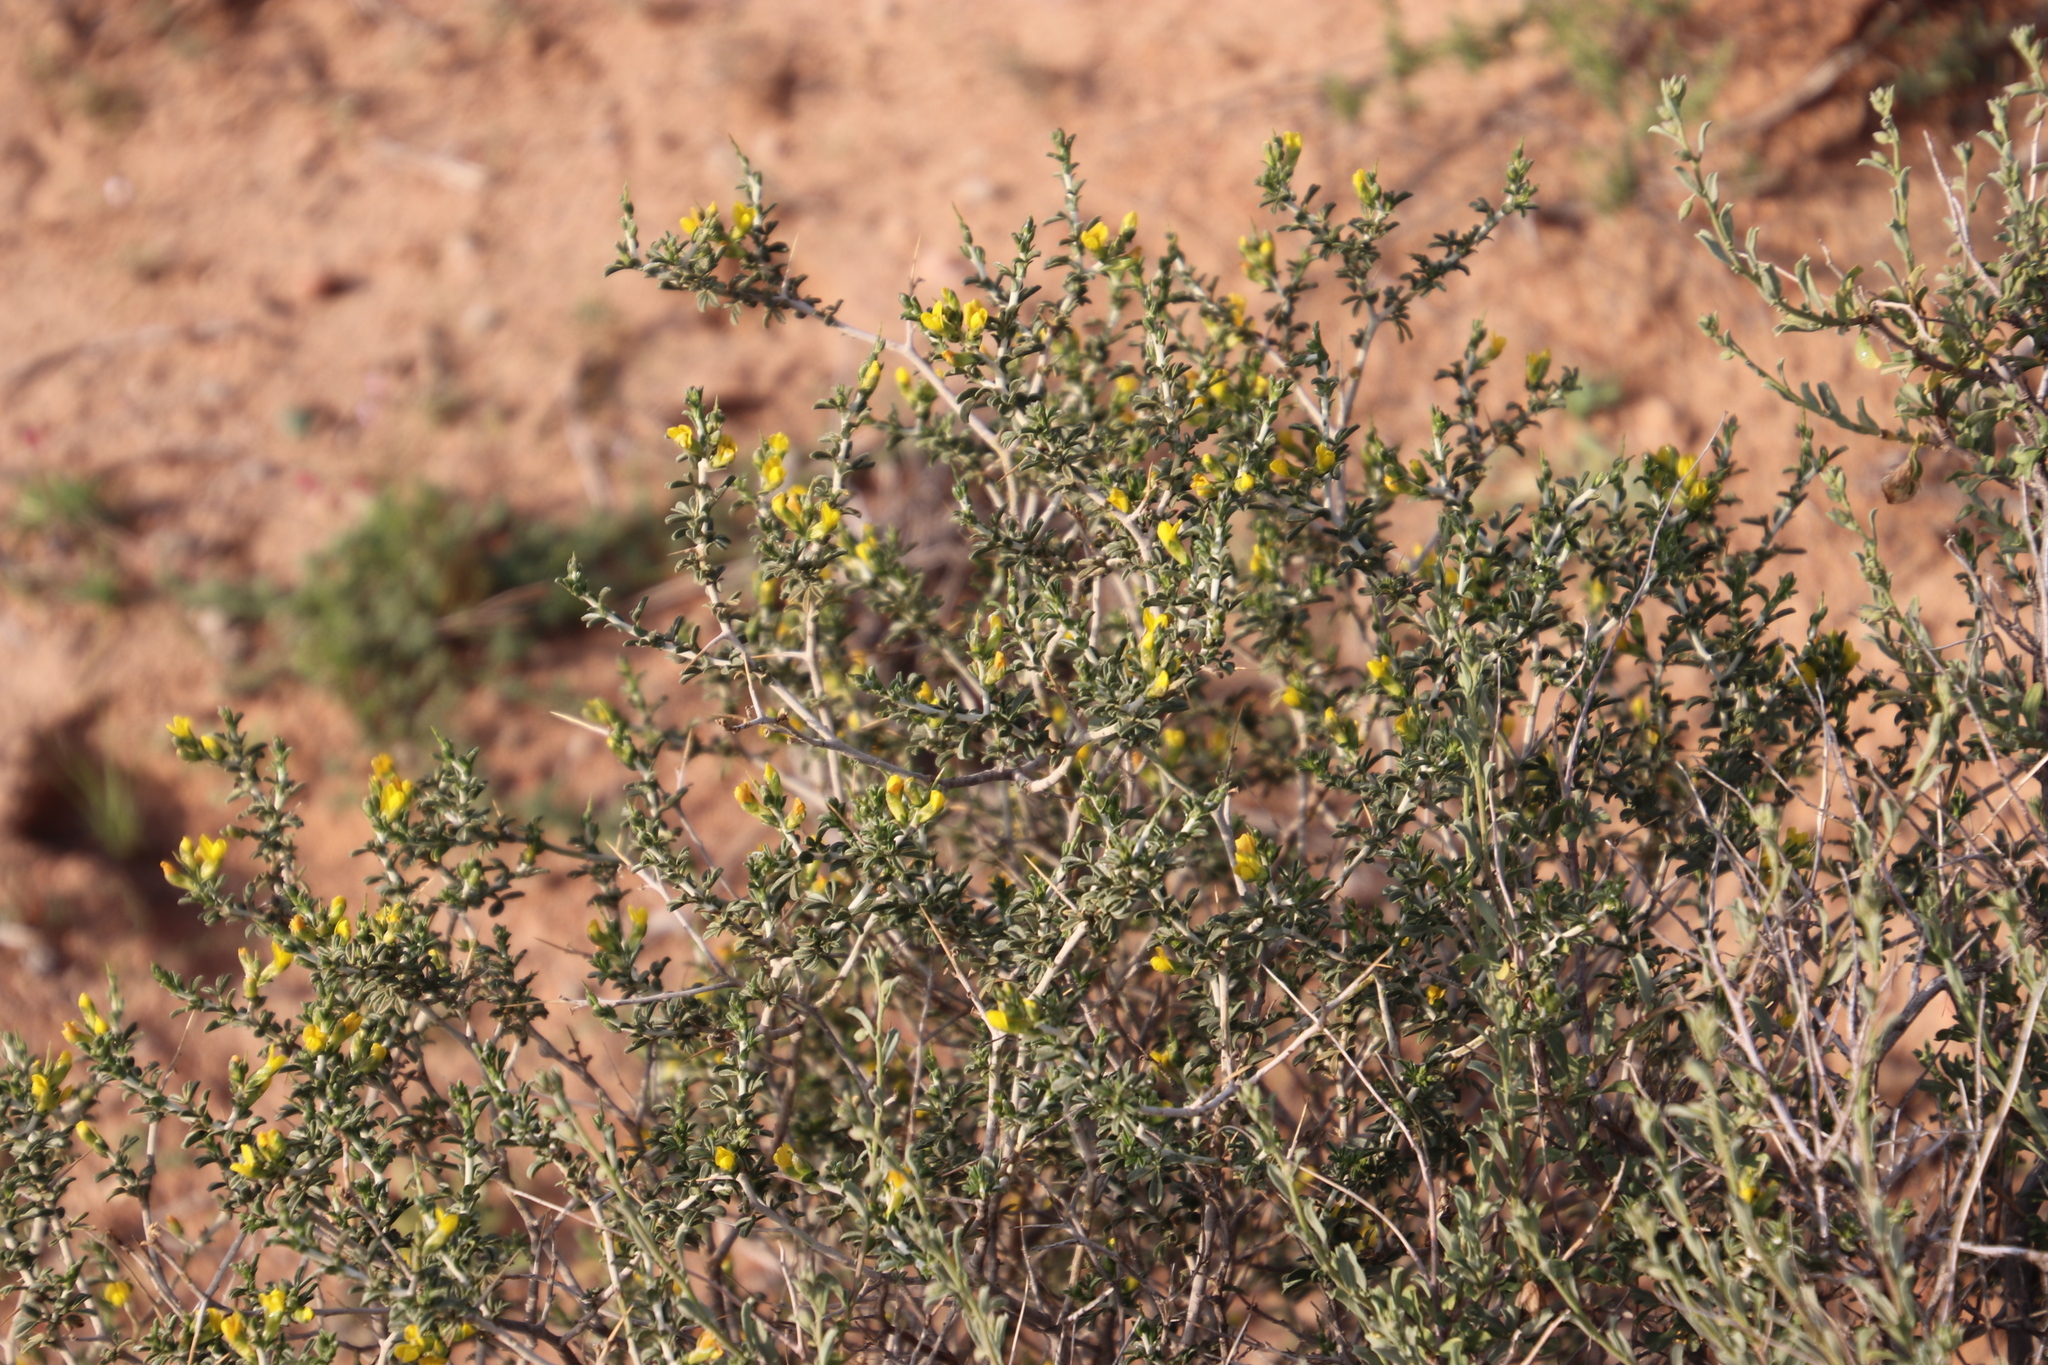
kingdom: Plantae
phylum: Tracheophyta
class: Magnoliopsida
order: Fabales
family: Fabaceae
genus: Melolobium
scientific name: Melolobium candicans
